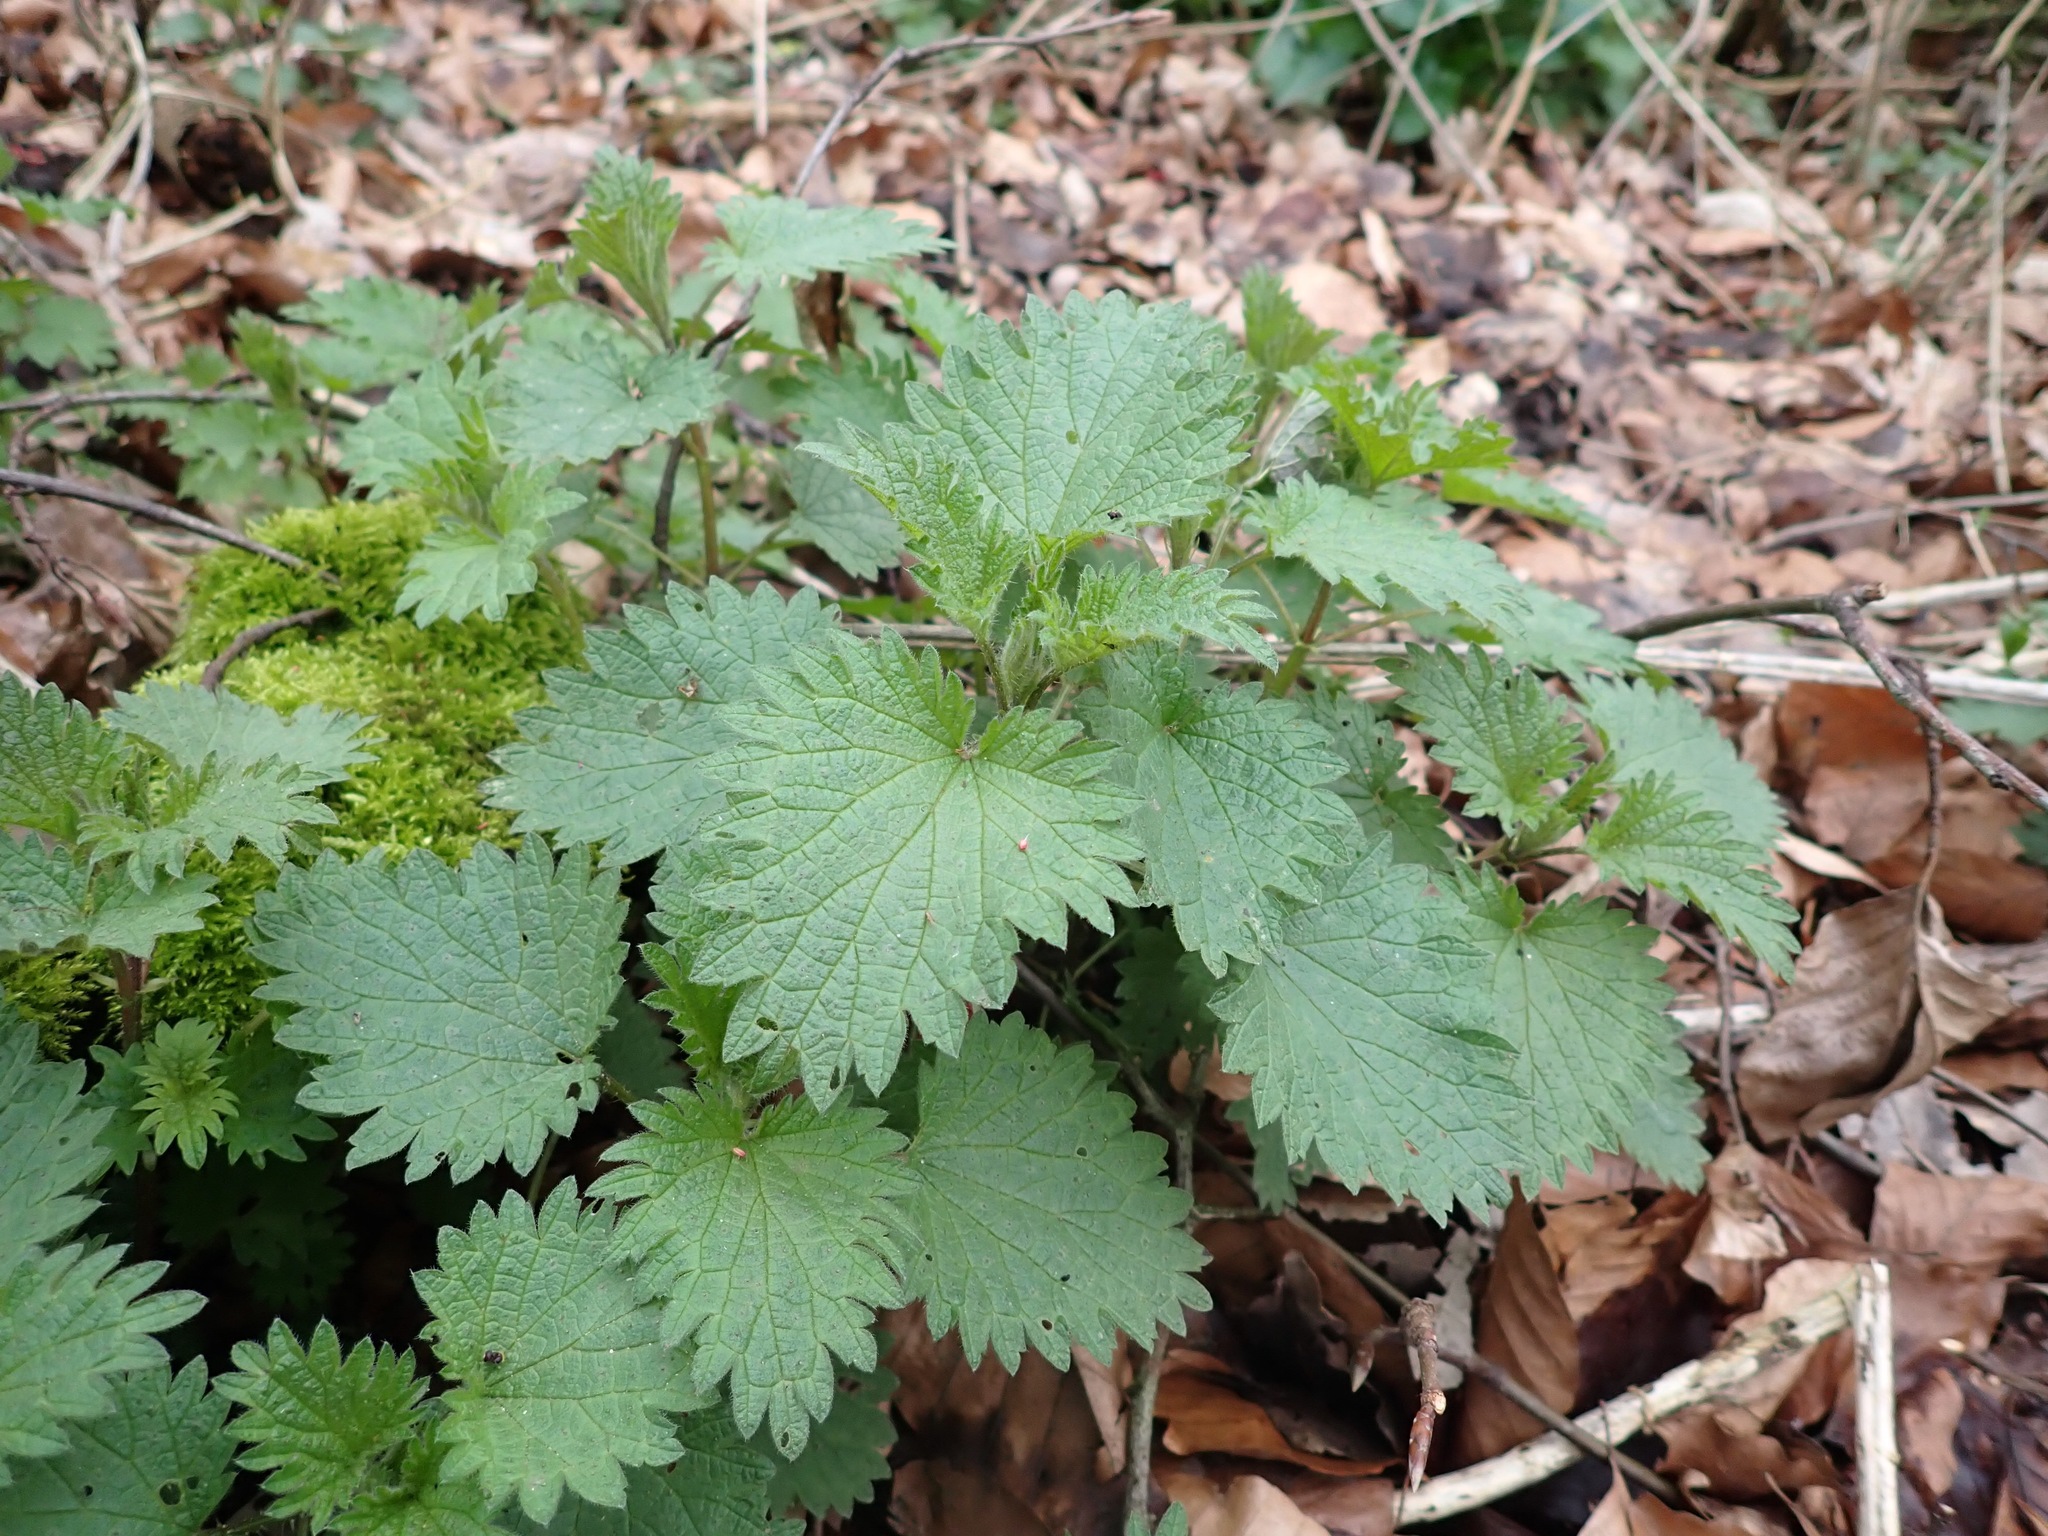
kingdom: Plantae
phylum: Tracheophyta
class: Magnoliopsida
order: Rosales
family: Urticaceae
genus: Urtica
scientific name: Urtica dioica
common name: Common nettle
